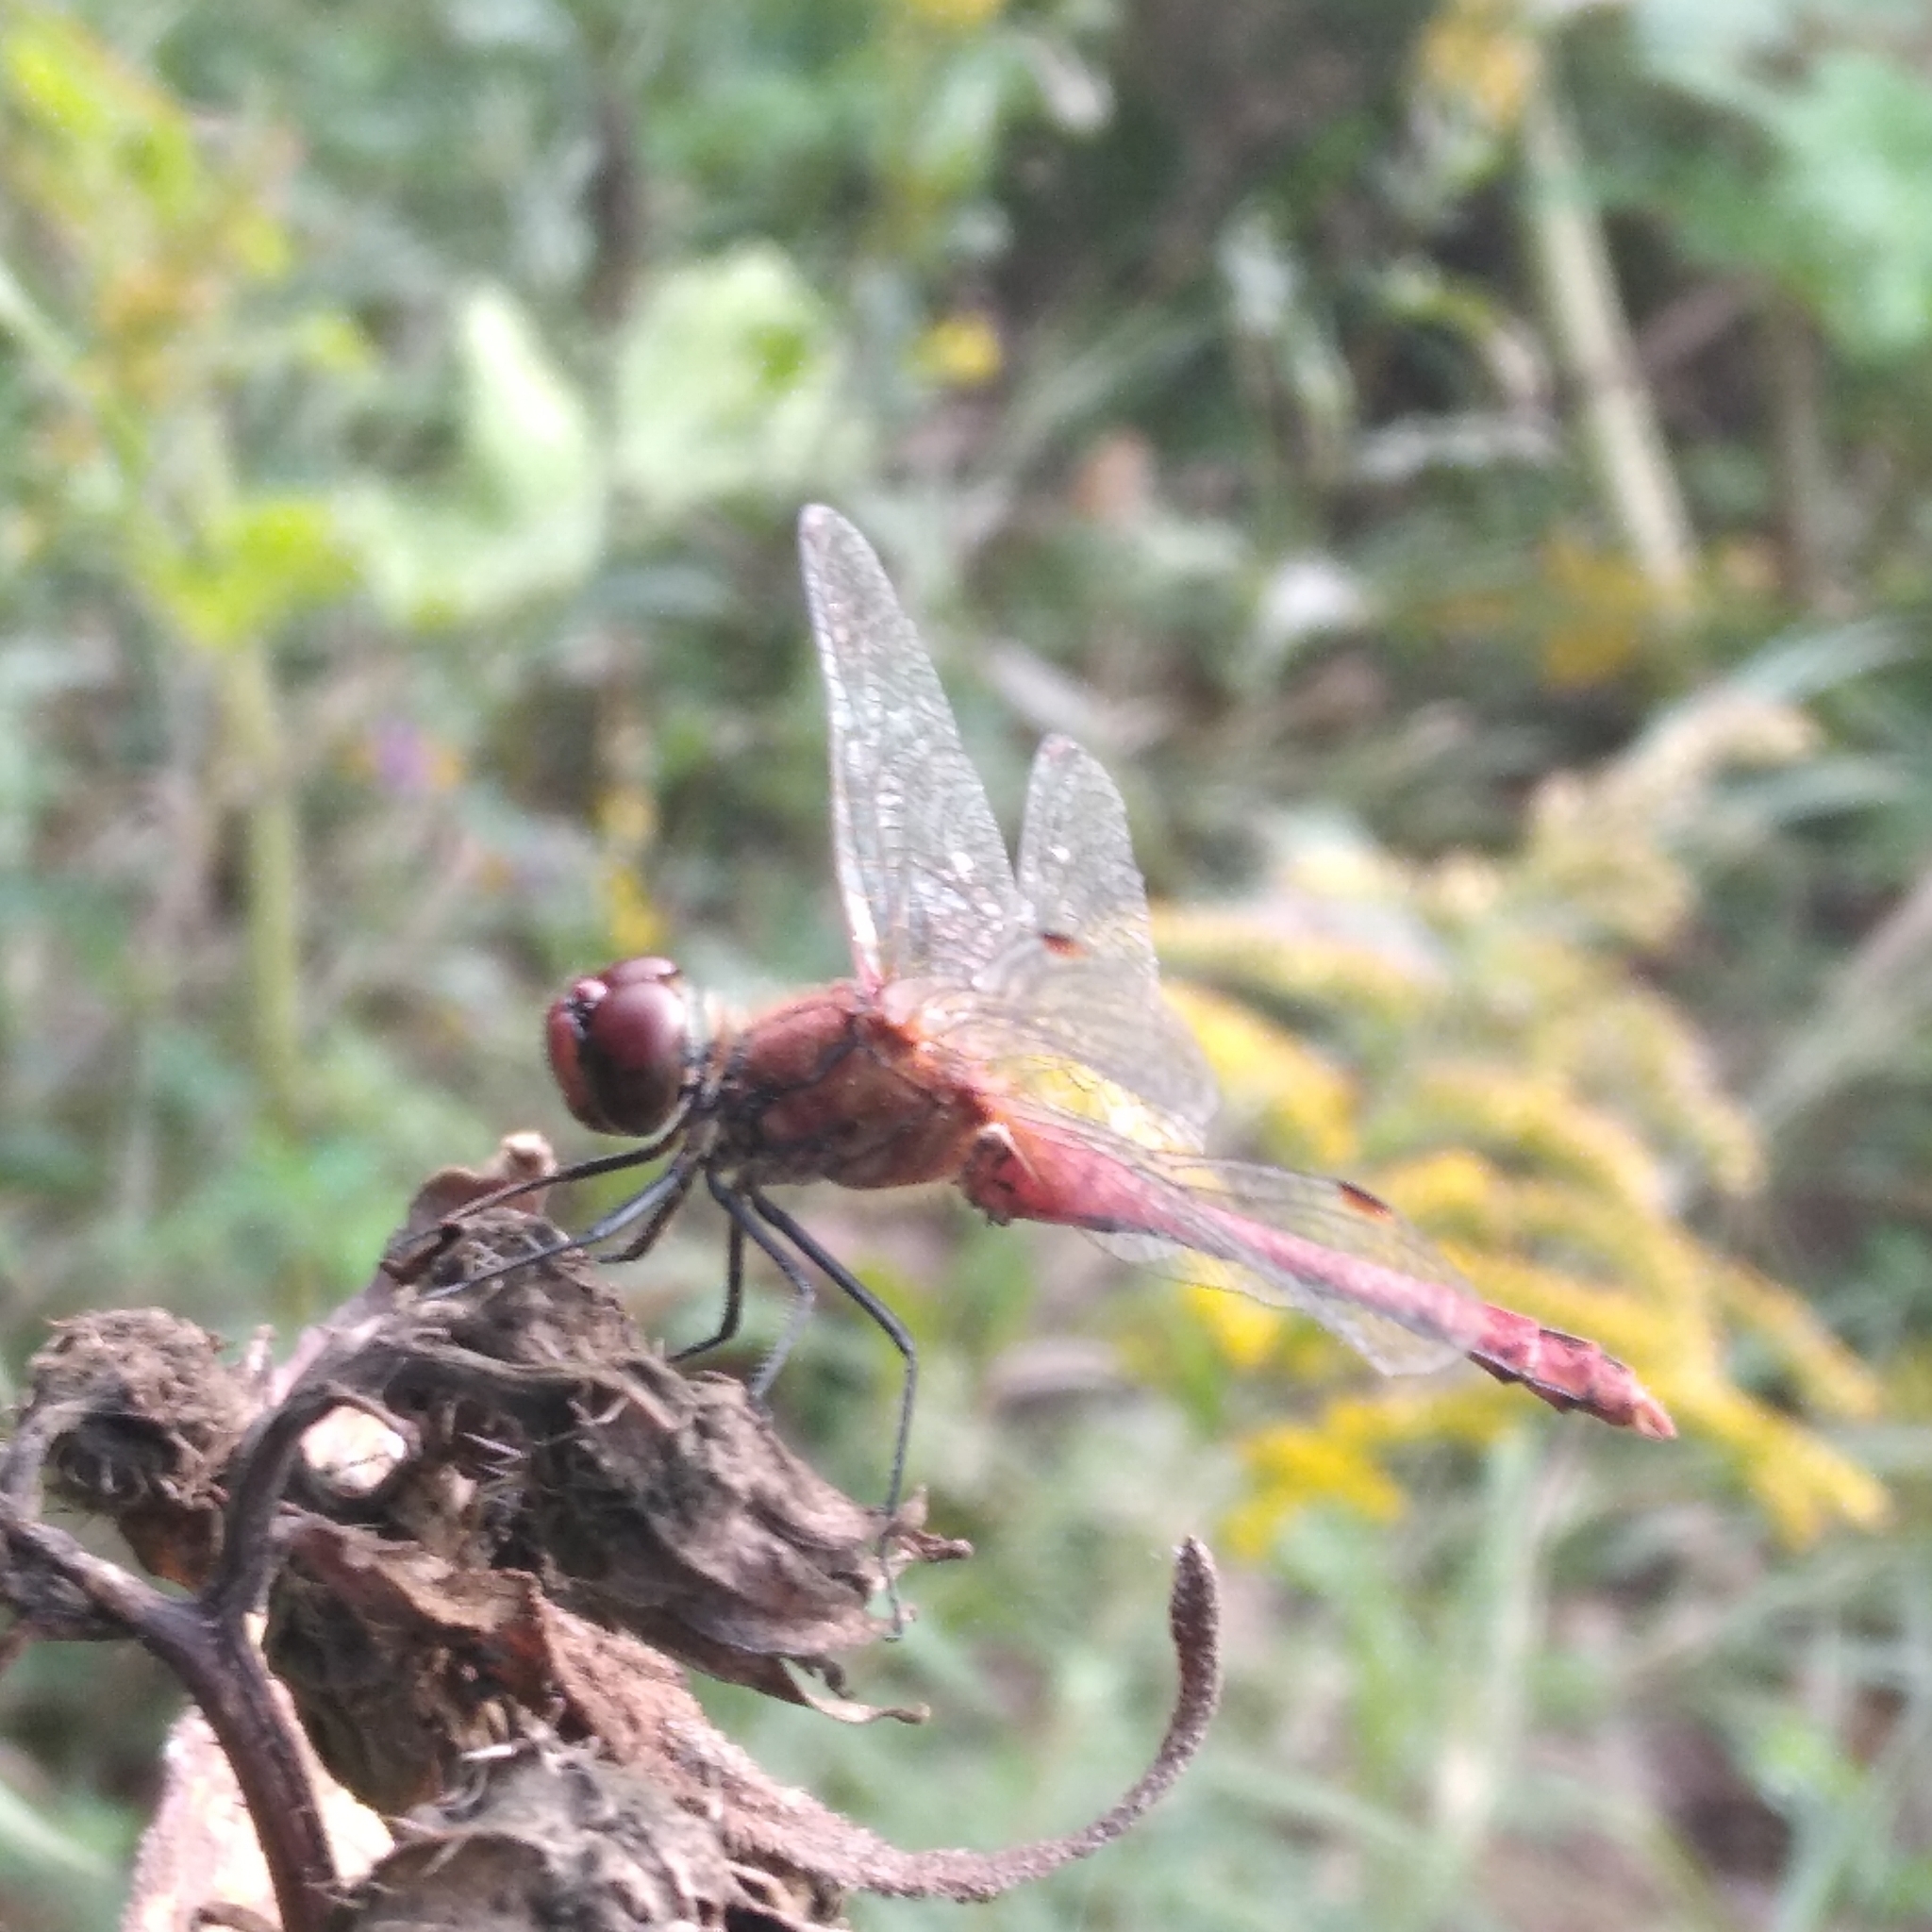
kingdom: Animalia
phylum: Arthropoda
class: Insecta
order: Odonata
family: Libellulidae
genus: Sympetrum
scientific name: Sympetrum sanguineum
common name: Ruddy darter
